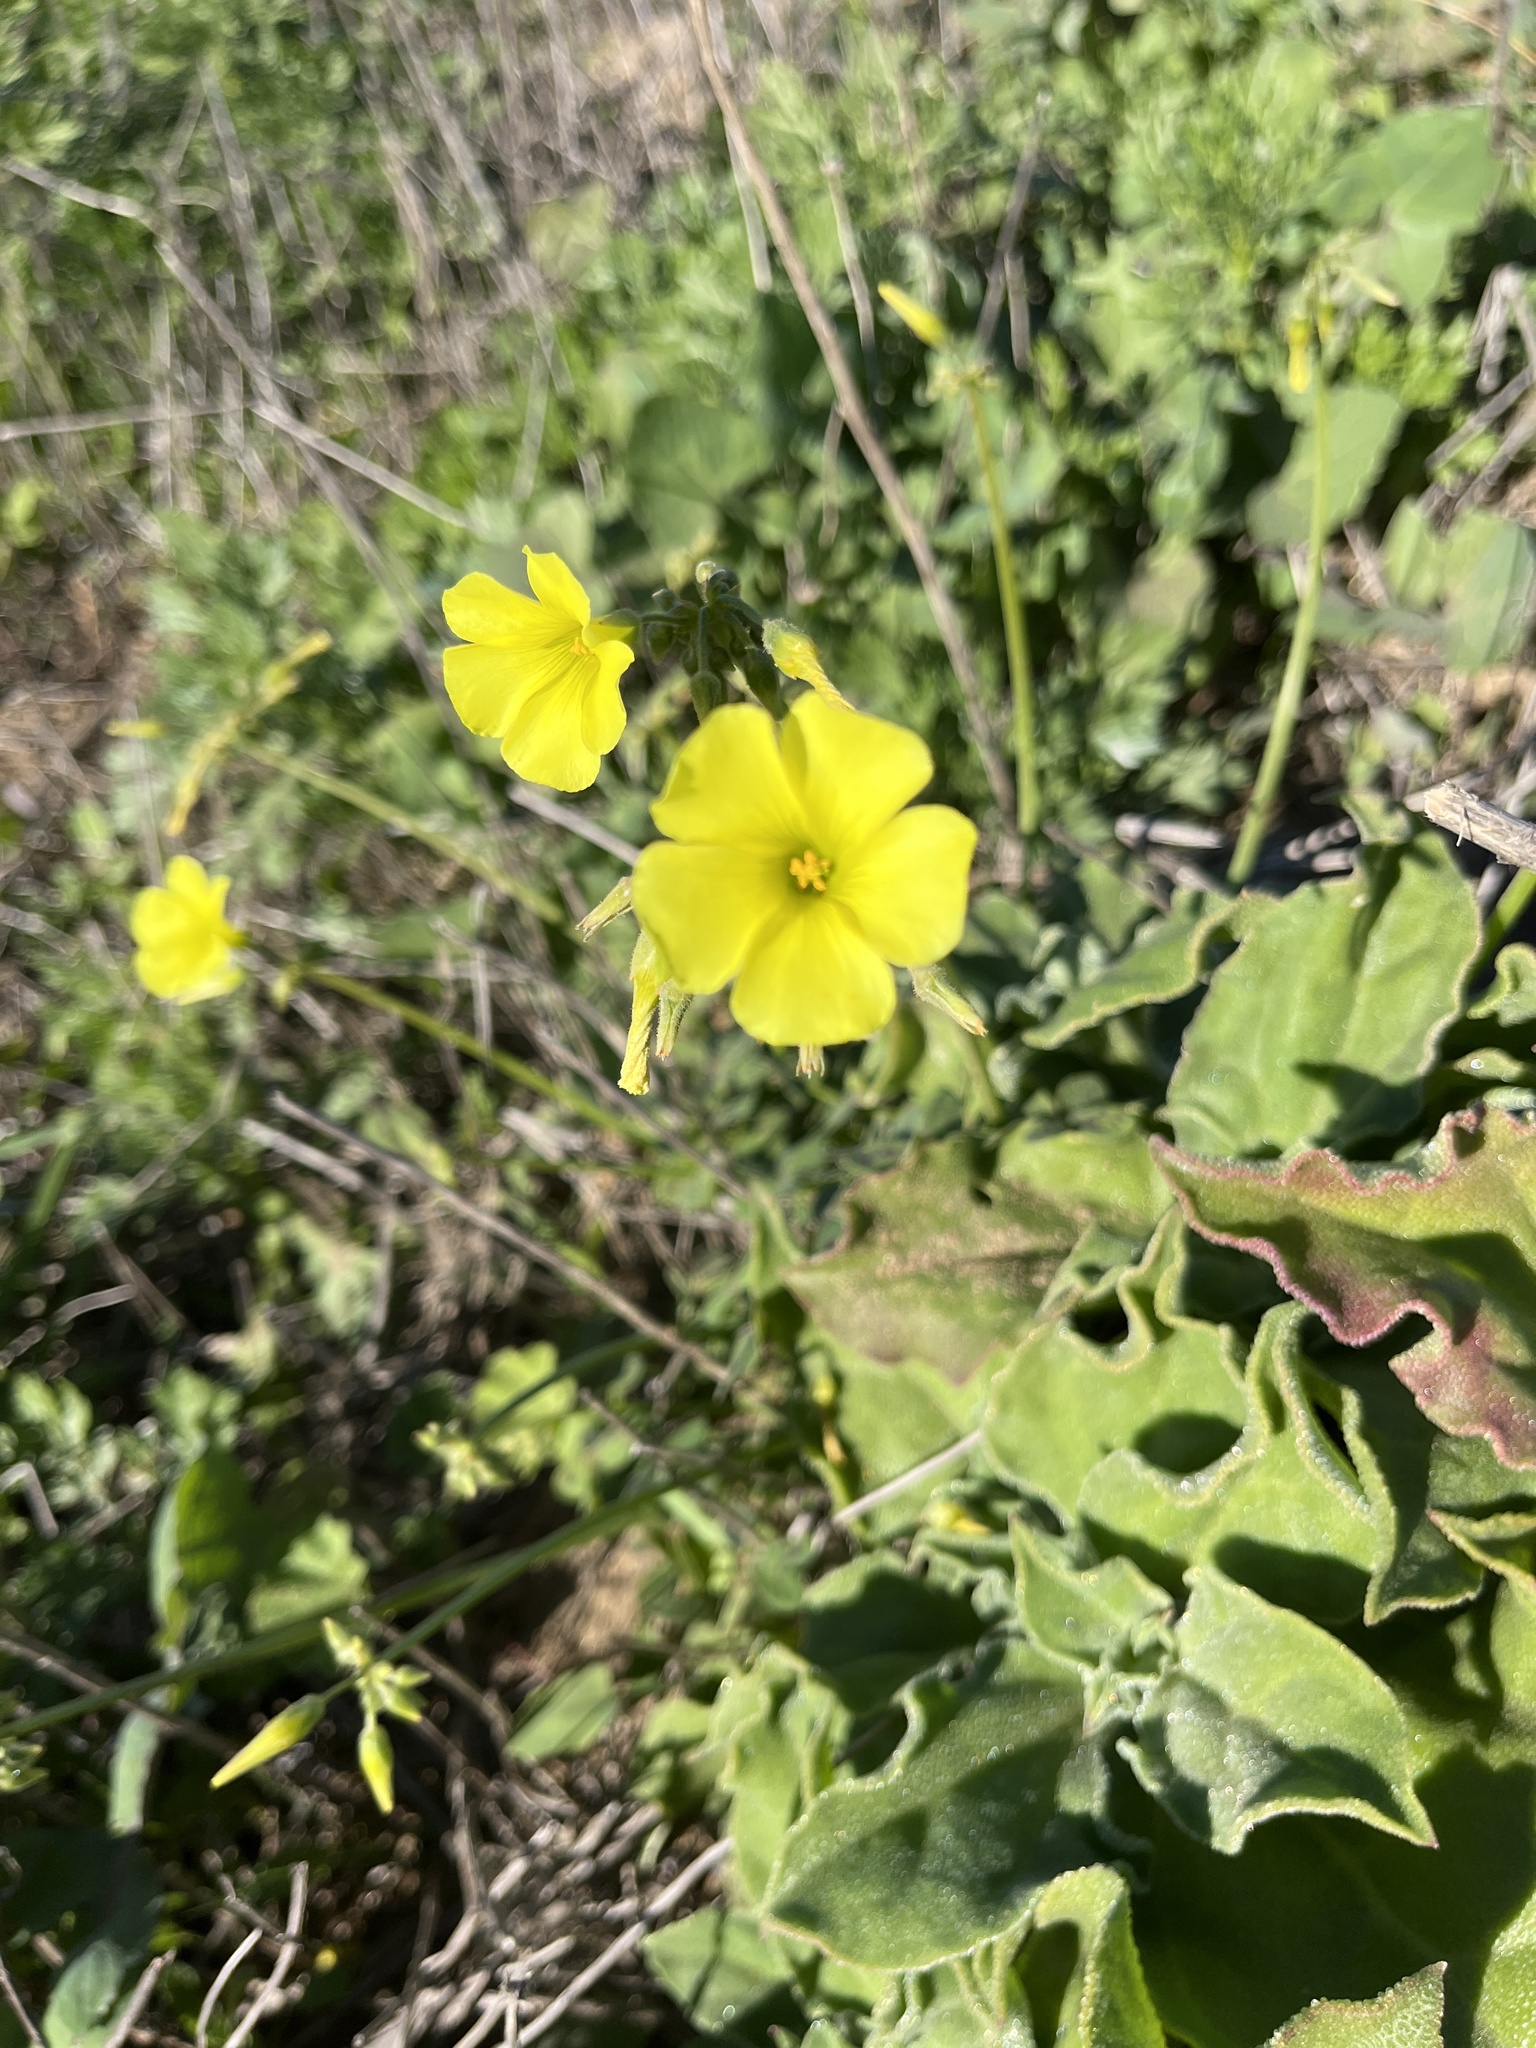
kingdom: Plantae
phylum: Tracheophyta
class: Magnoliopsida
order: Oxalidales
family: Oxalidaceae
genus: Oxalis
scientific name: Oxalis pes-caprae
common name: Bermuda-buttercup
